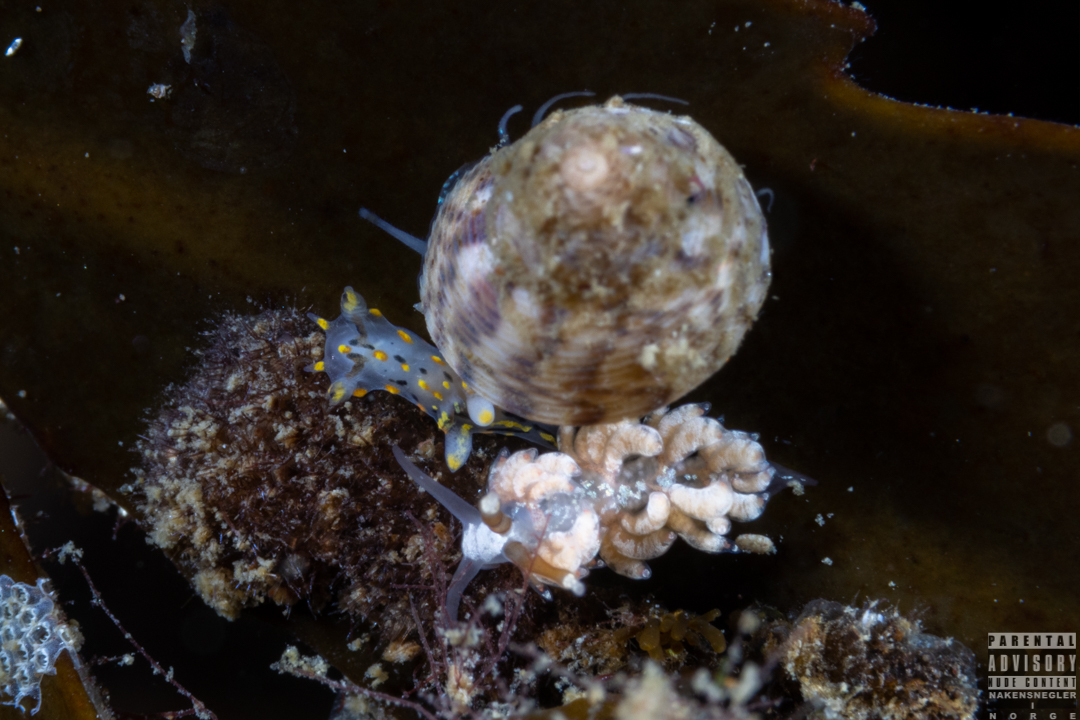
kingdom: Animalia
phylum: Mollusca
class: Gastropoda
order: Nudibranchia
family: Facelinidae
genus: Favorinus
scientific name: Favorinus branchialis
